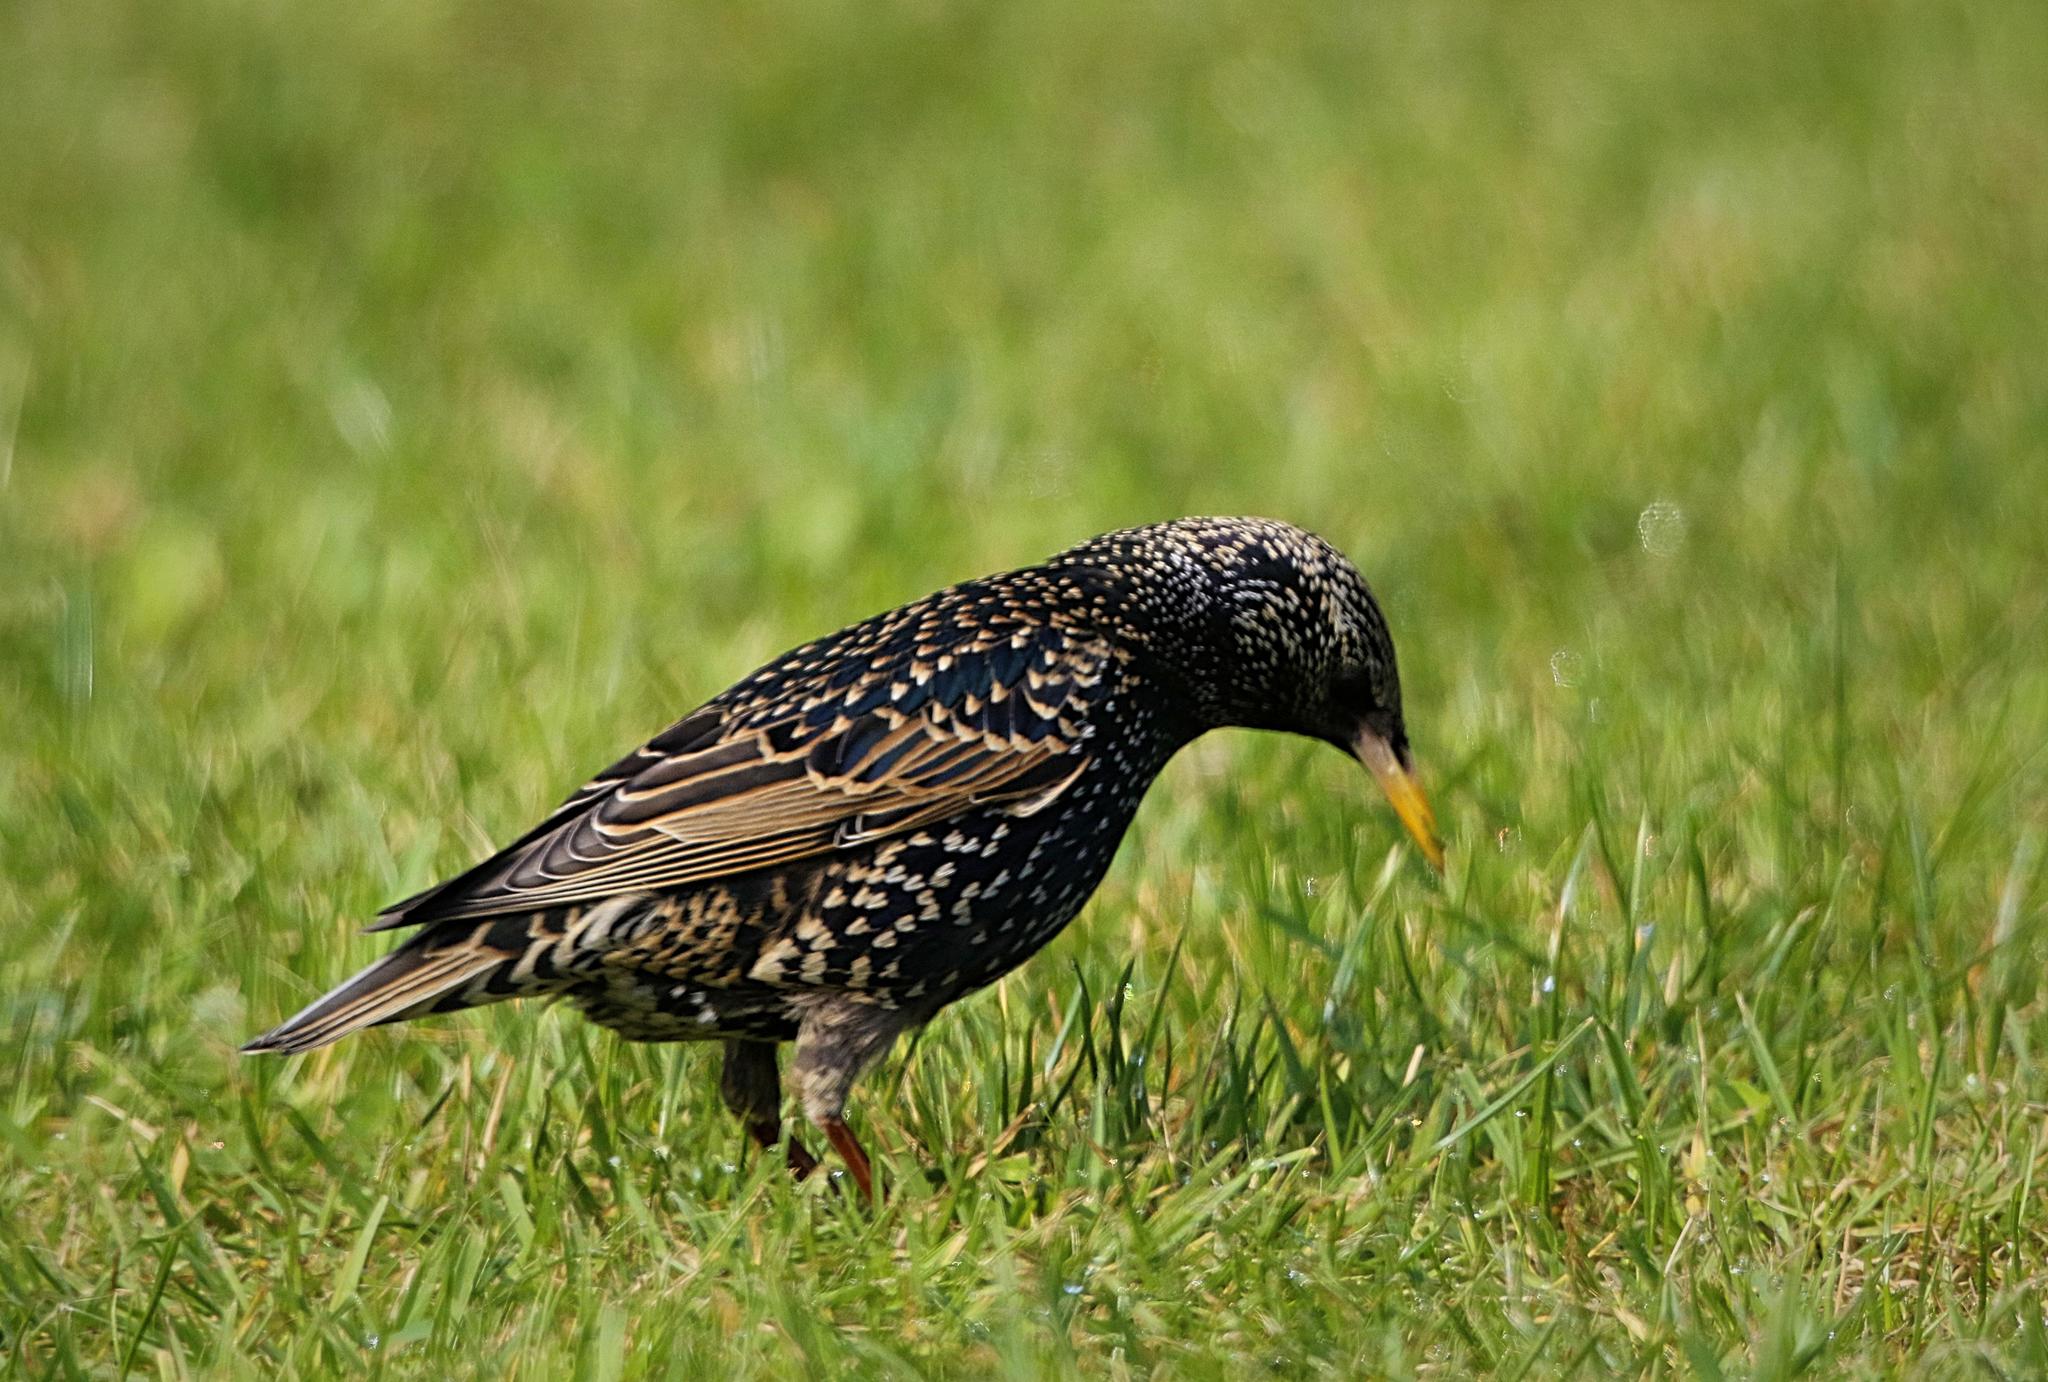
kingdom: Animalia
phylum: Chordata
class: Aves
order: Passeriformes
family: Sturnidae
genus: Sturnus
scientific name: Sturnus vulgaris
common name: Common starling
